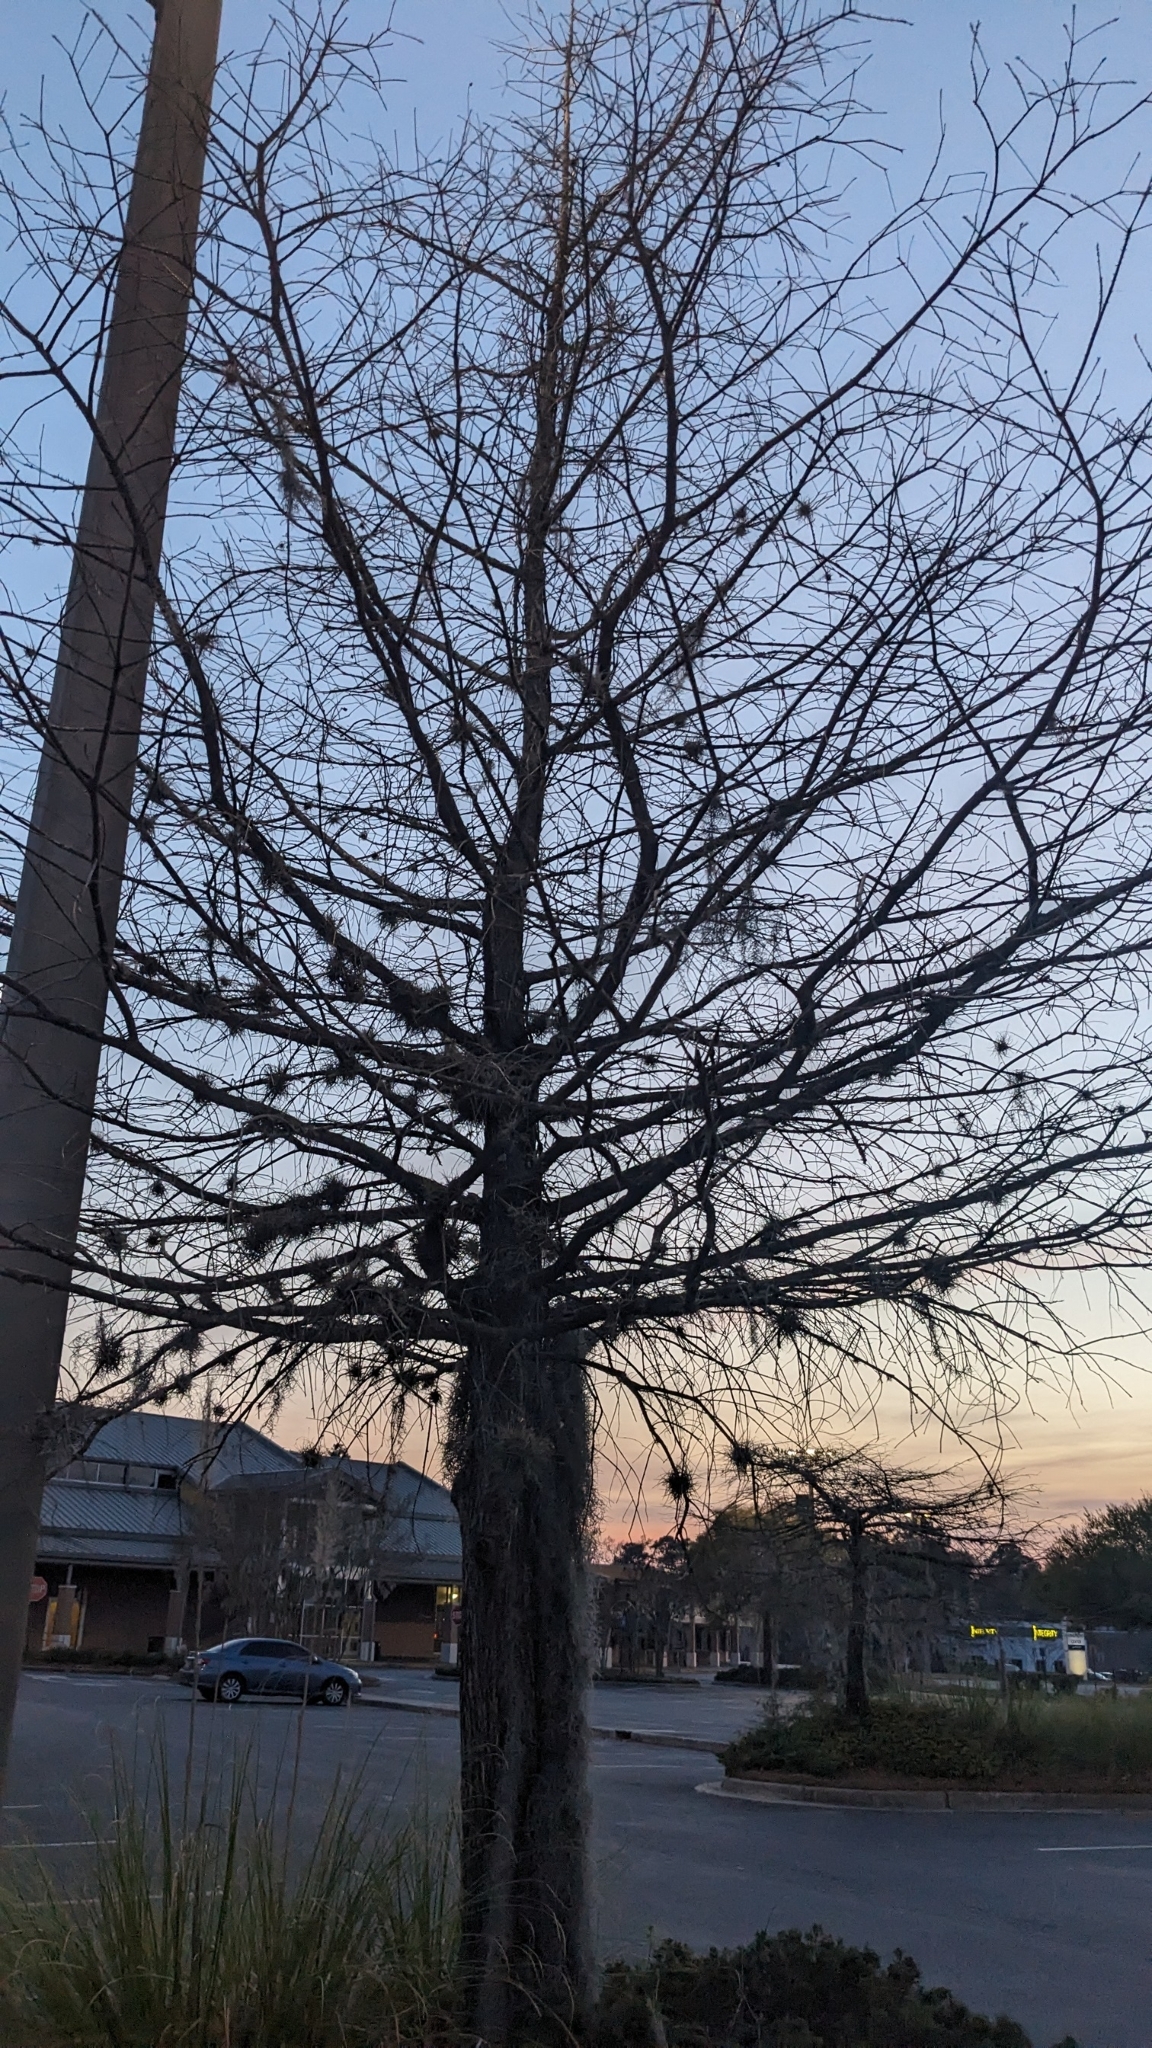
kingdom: Plantae
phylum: Tracheophyta
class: Liliopsida
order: Poales
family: Bromeliaceae
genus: Tillandsia
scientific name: Tillandsia recurvata
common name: Small ballmoss
